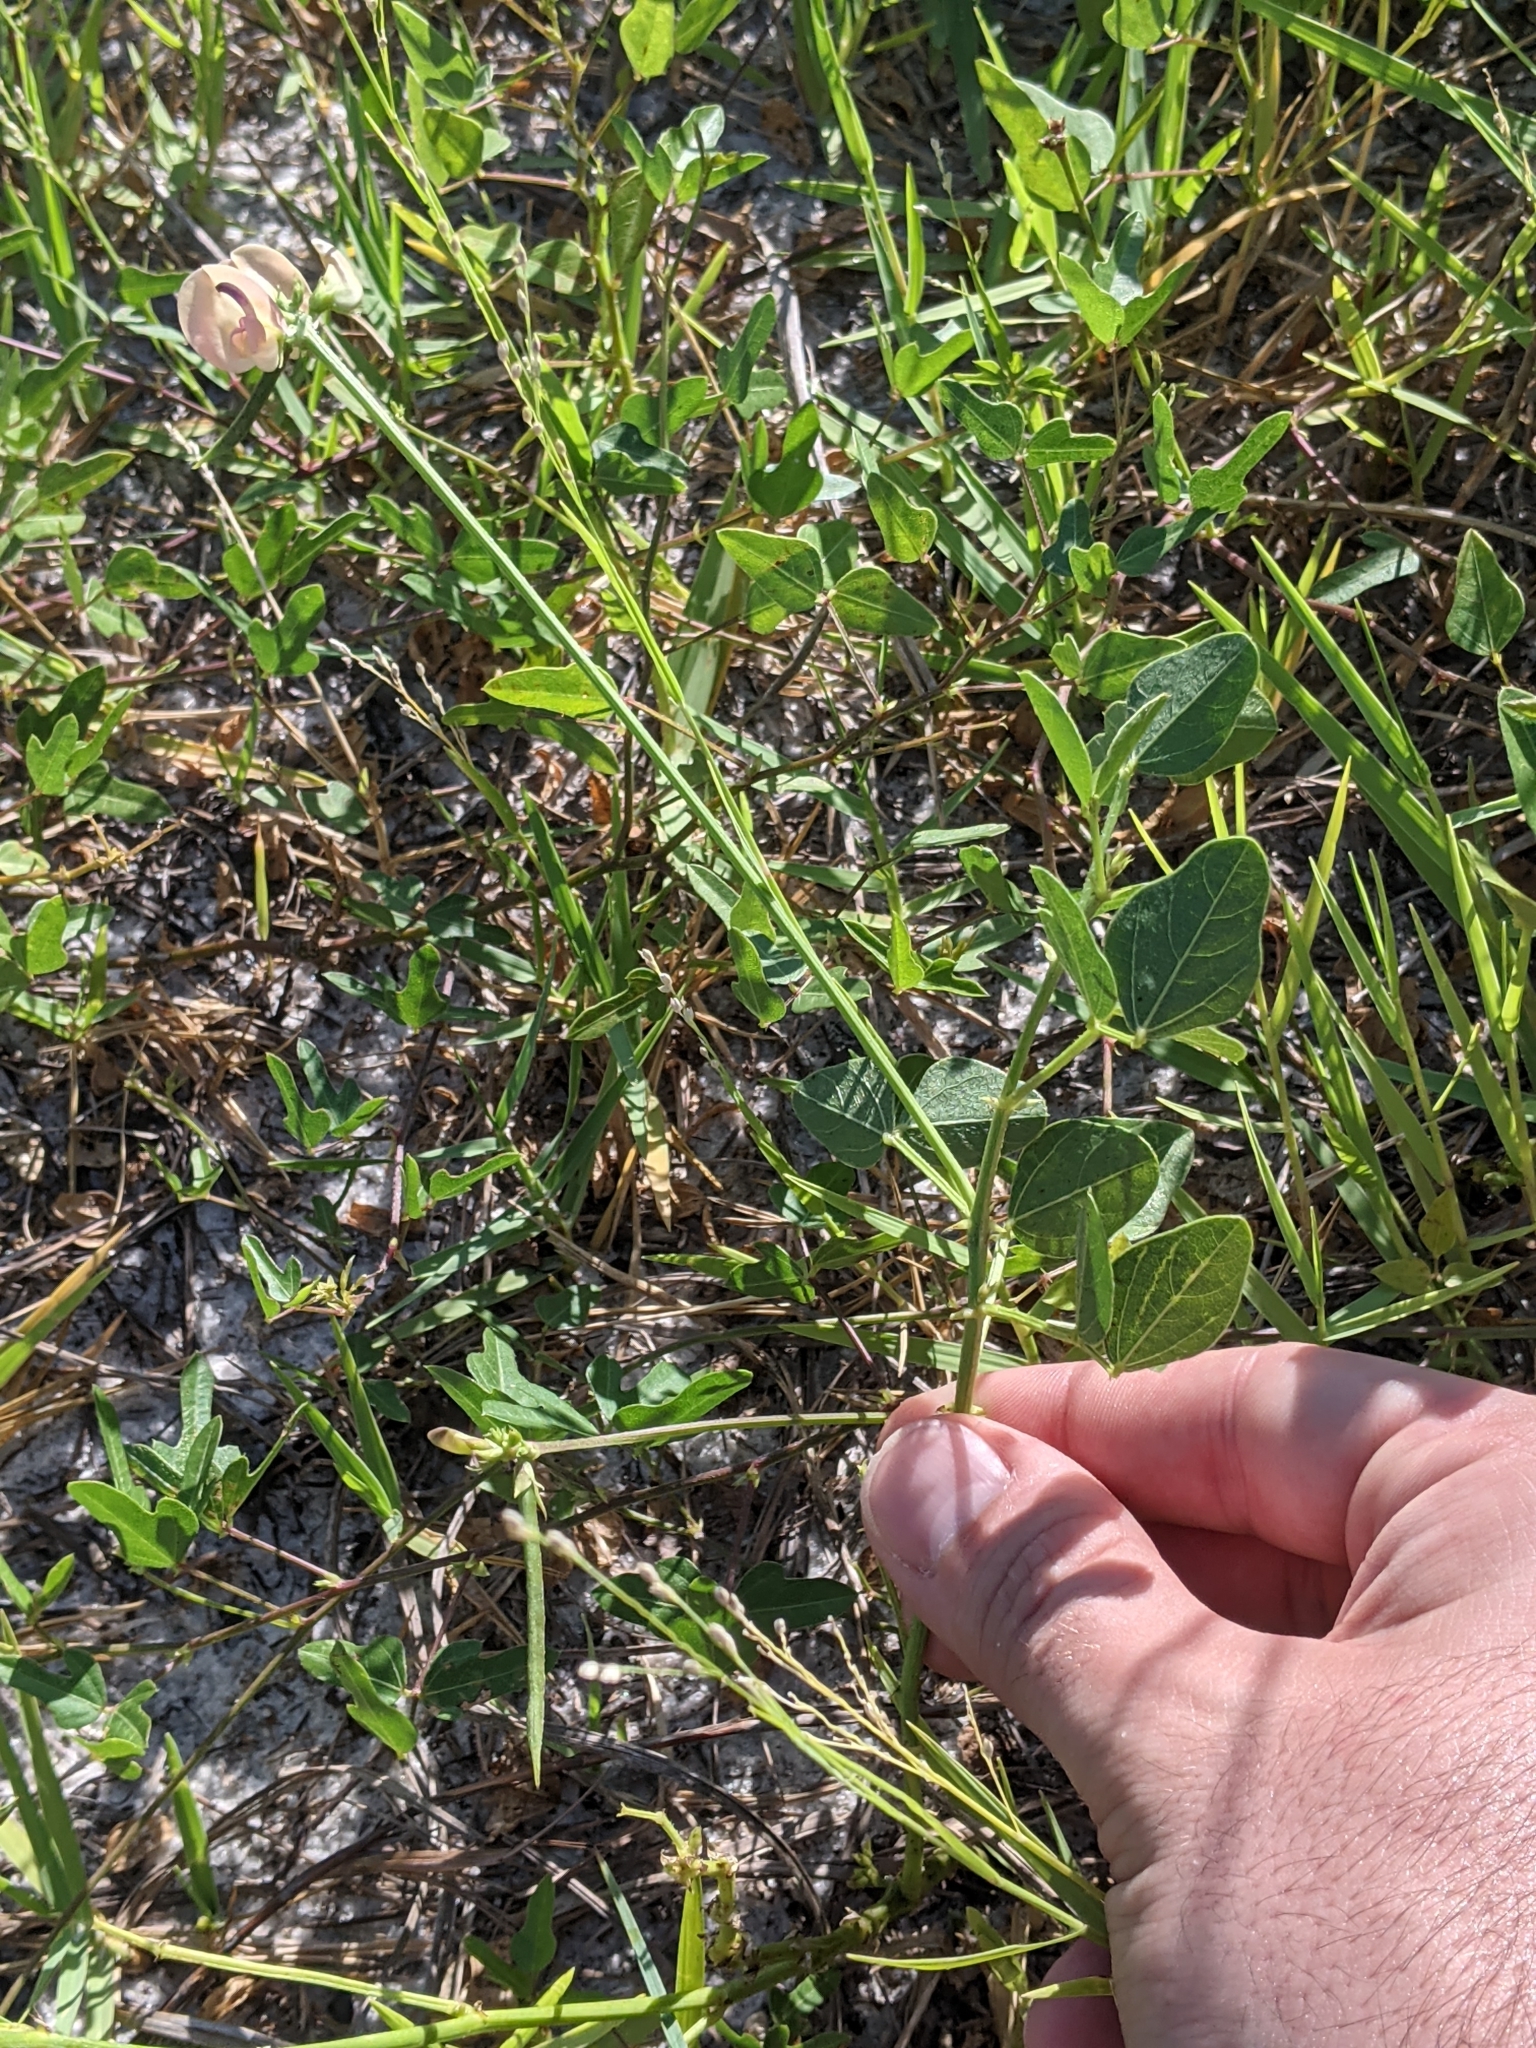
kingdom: Plantae
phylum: Tracheophyta
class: Magnoliopsida
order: Fabales
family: Fabaceae
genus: Strophostyles
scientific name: Strophostyles helvola
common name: Trailing wild bean
